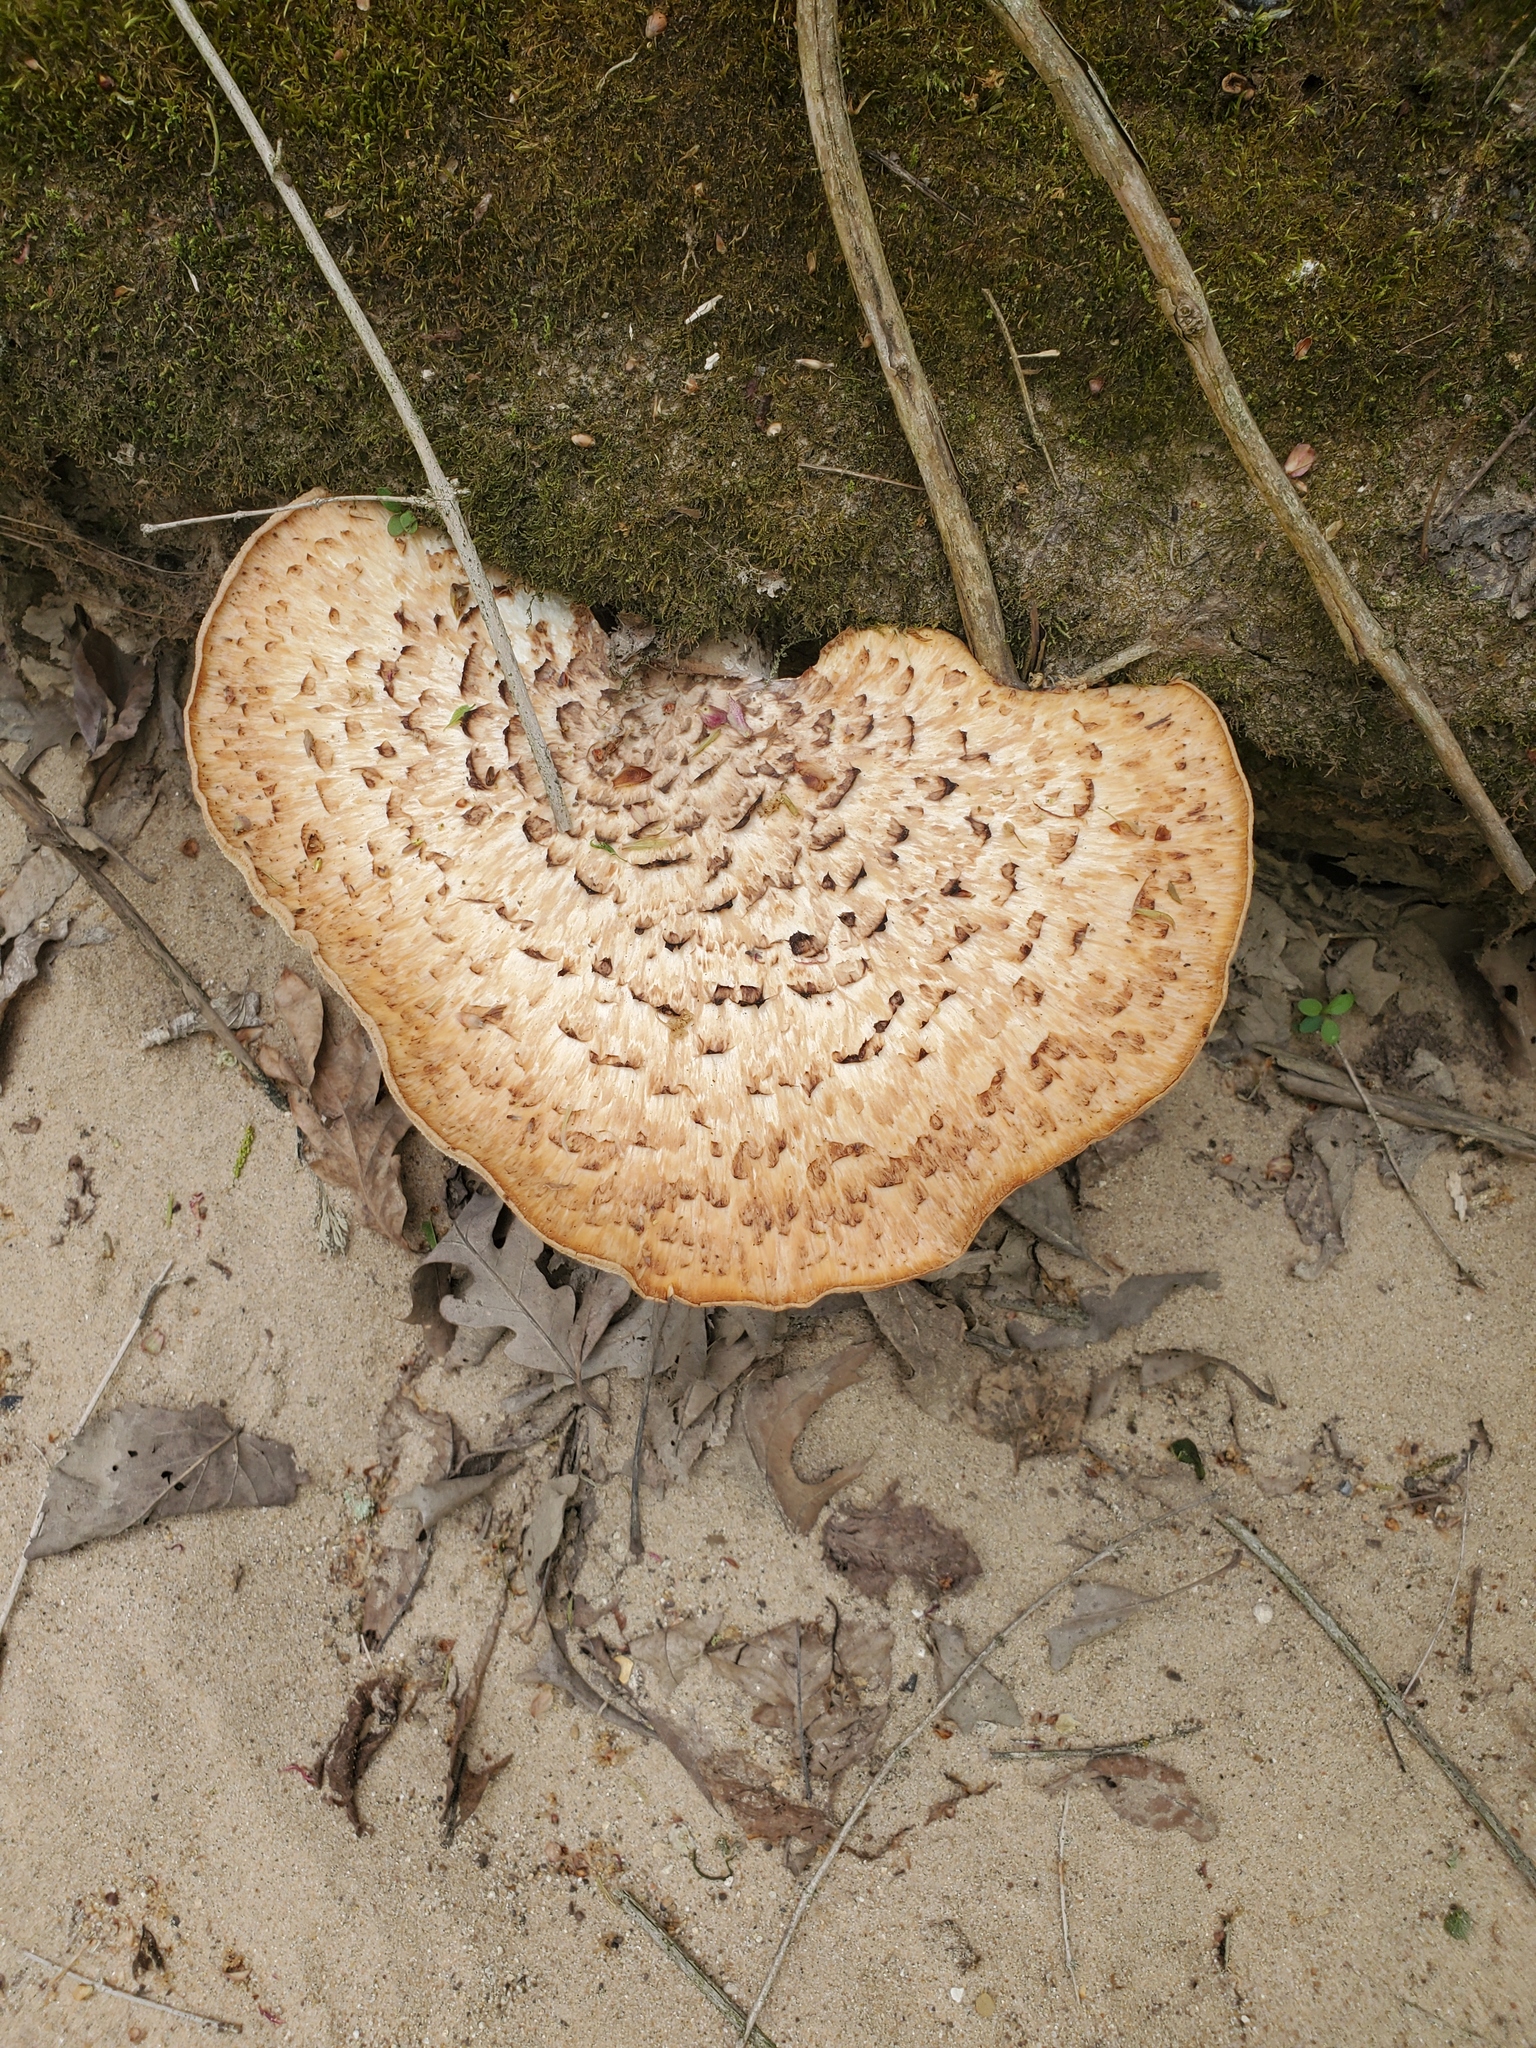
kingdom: Fungi
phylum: Basidiomycota
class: Agaricomycetes
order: Polyporales
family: Polyporaceae
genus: Cerioporus
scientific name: Cerioporus squamosus
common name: Dryad's saddle
